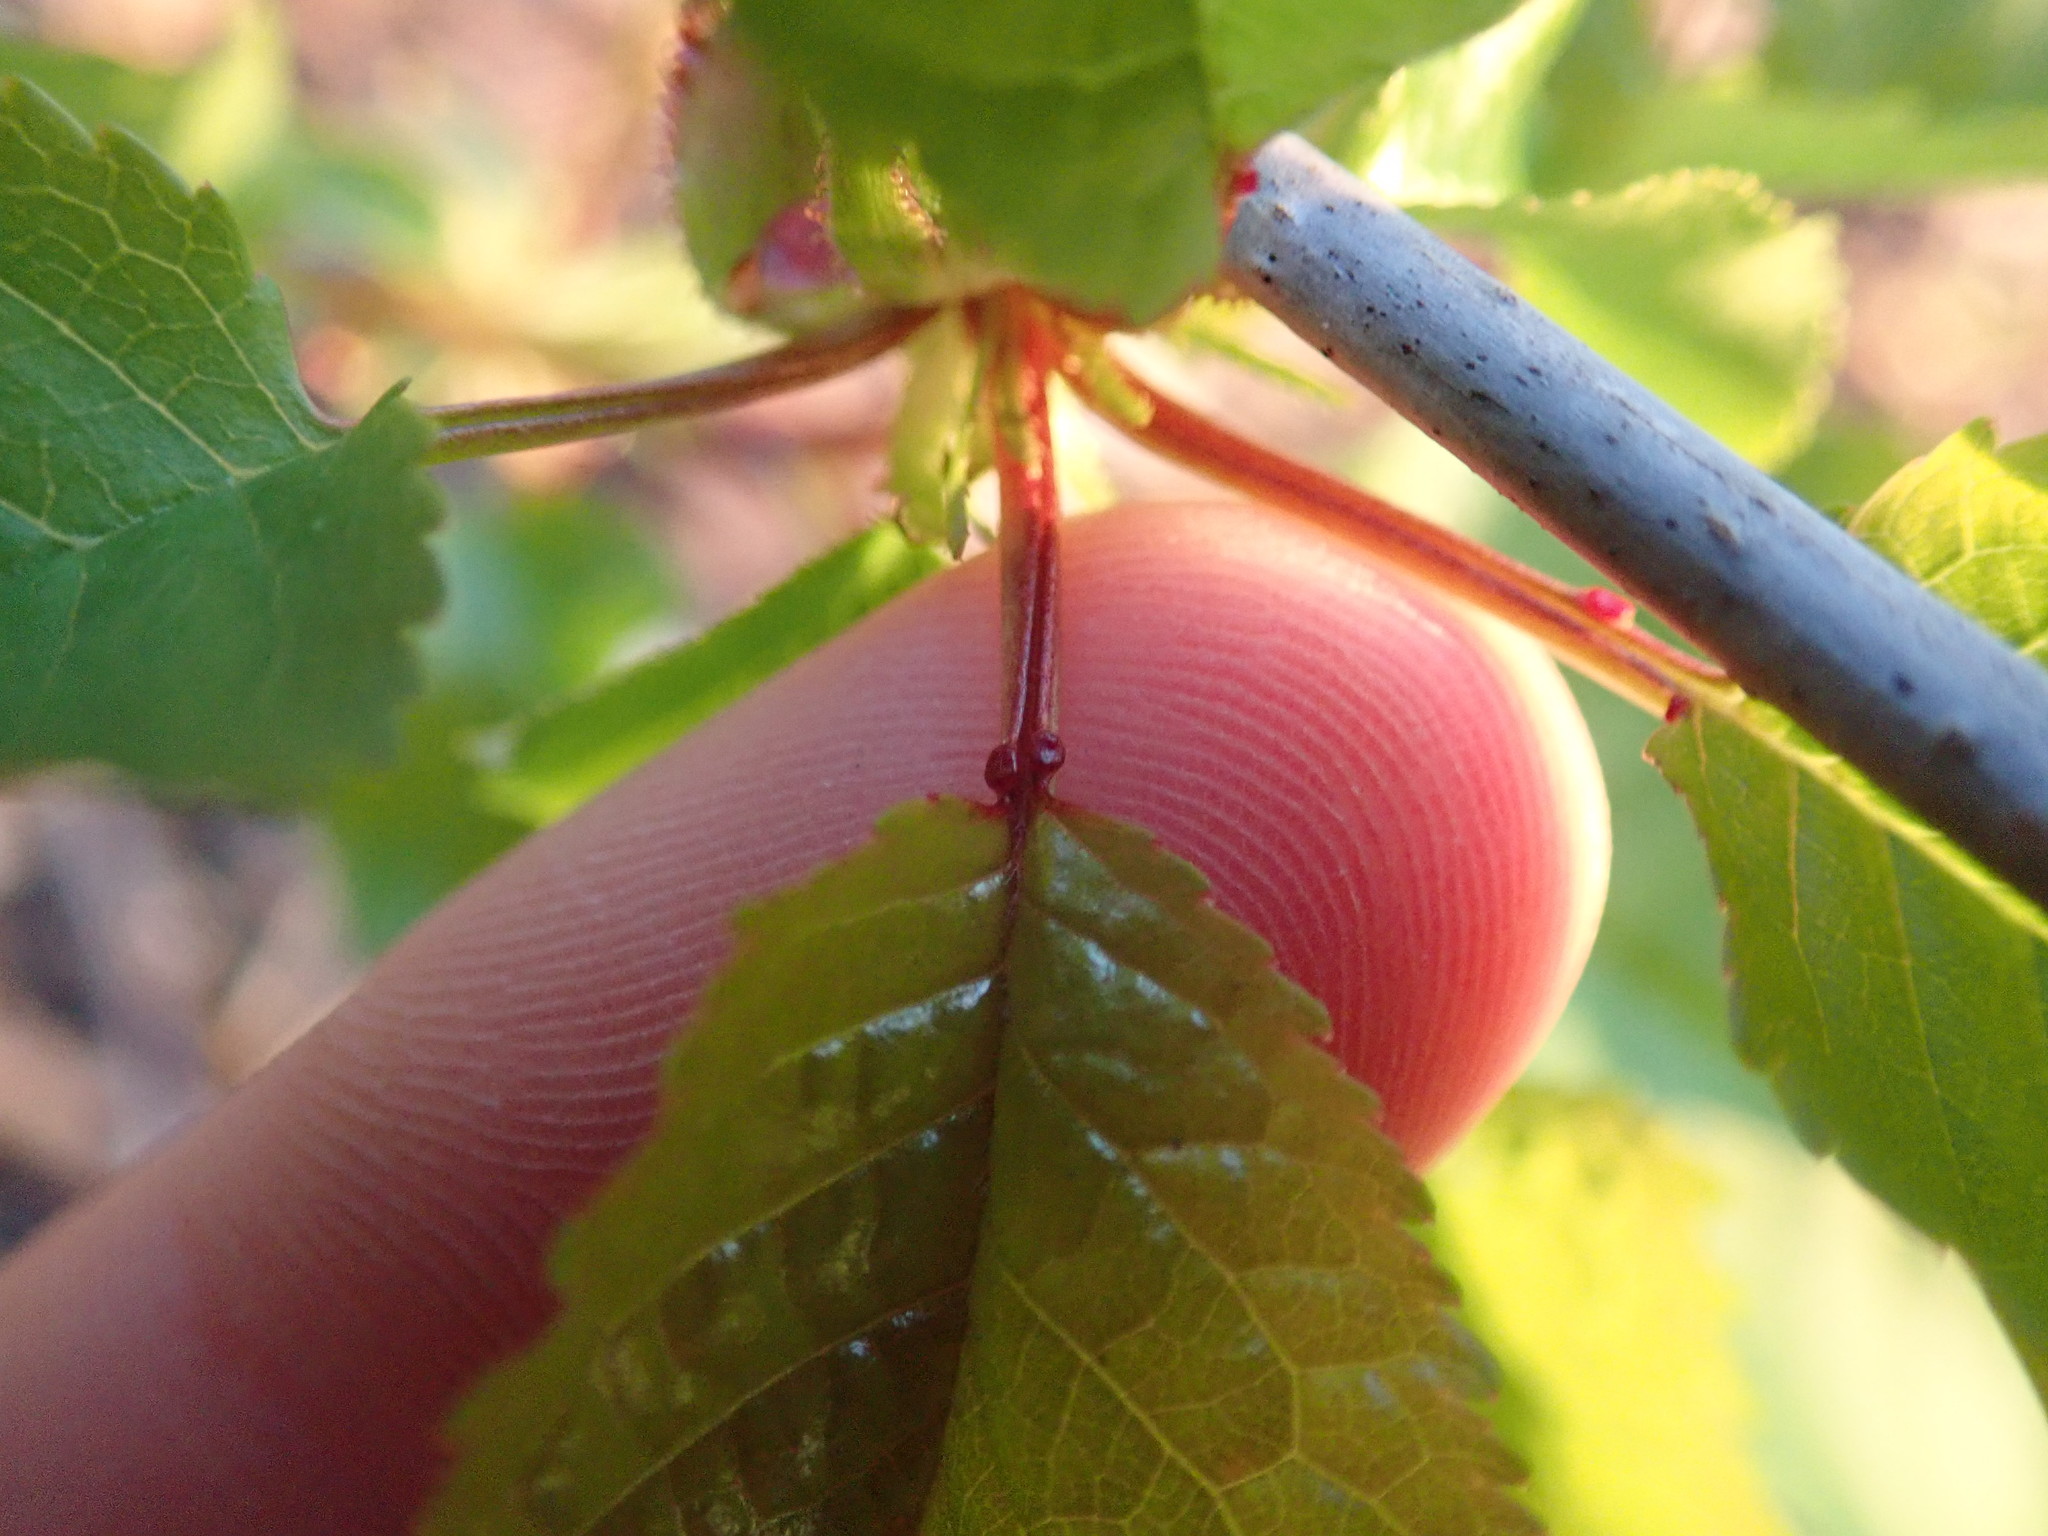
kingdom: Plantae
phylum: Tracheophyta
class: Magnoliopsida
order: Rosales
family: Rosaceae
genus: Prunus
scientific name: Prunus avium
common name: Sweet cherry
